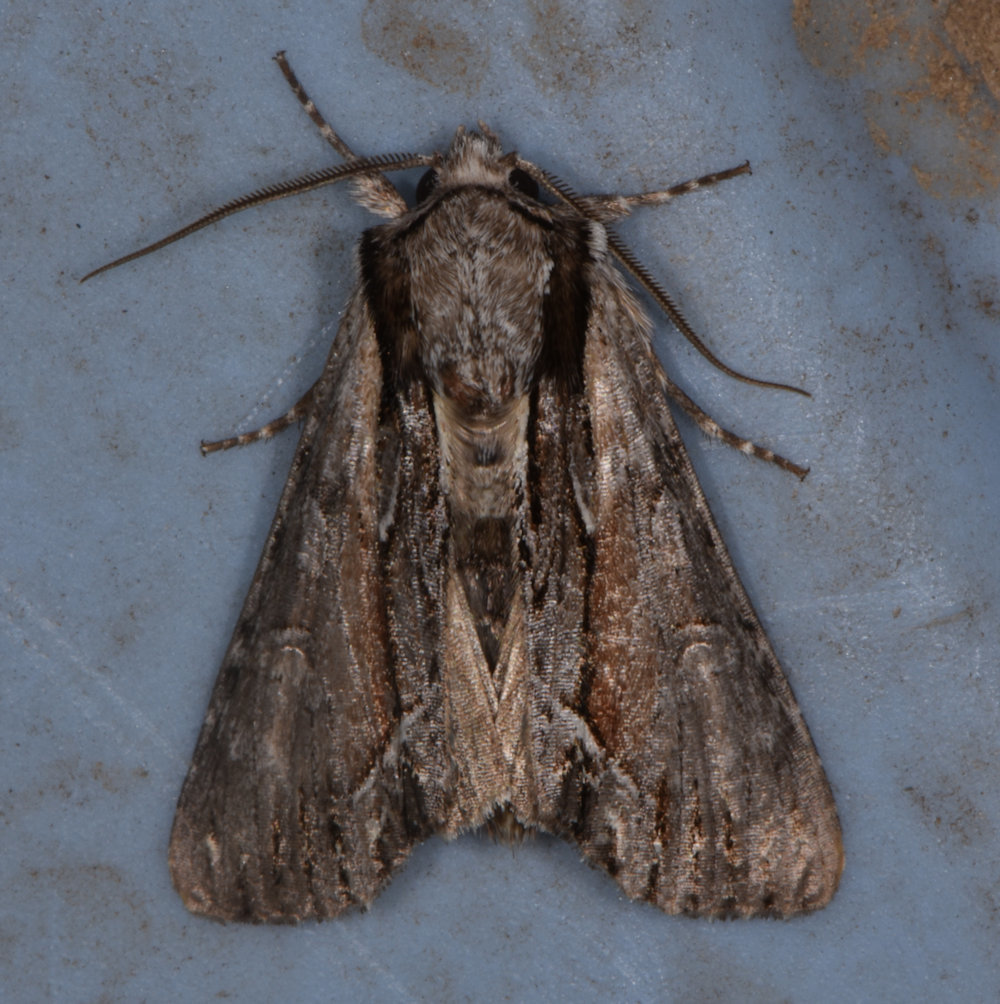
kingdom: Animalia
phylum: Arthropoda
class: Insecta
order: Lepidoptera
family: Noctuidae
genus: Hyppa
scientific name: Hyppa xylinoides
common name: Common hyppa moth
